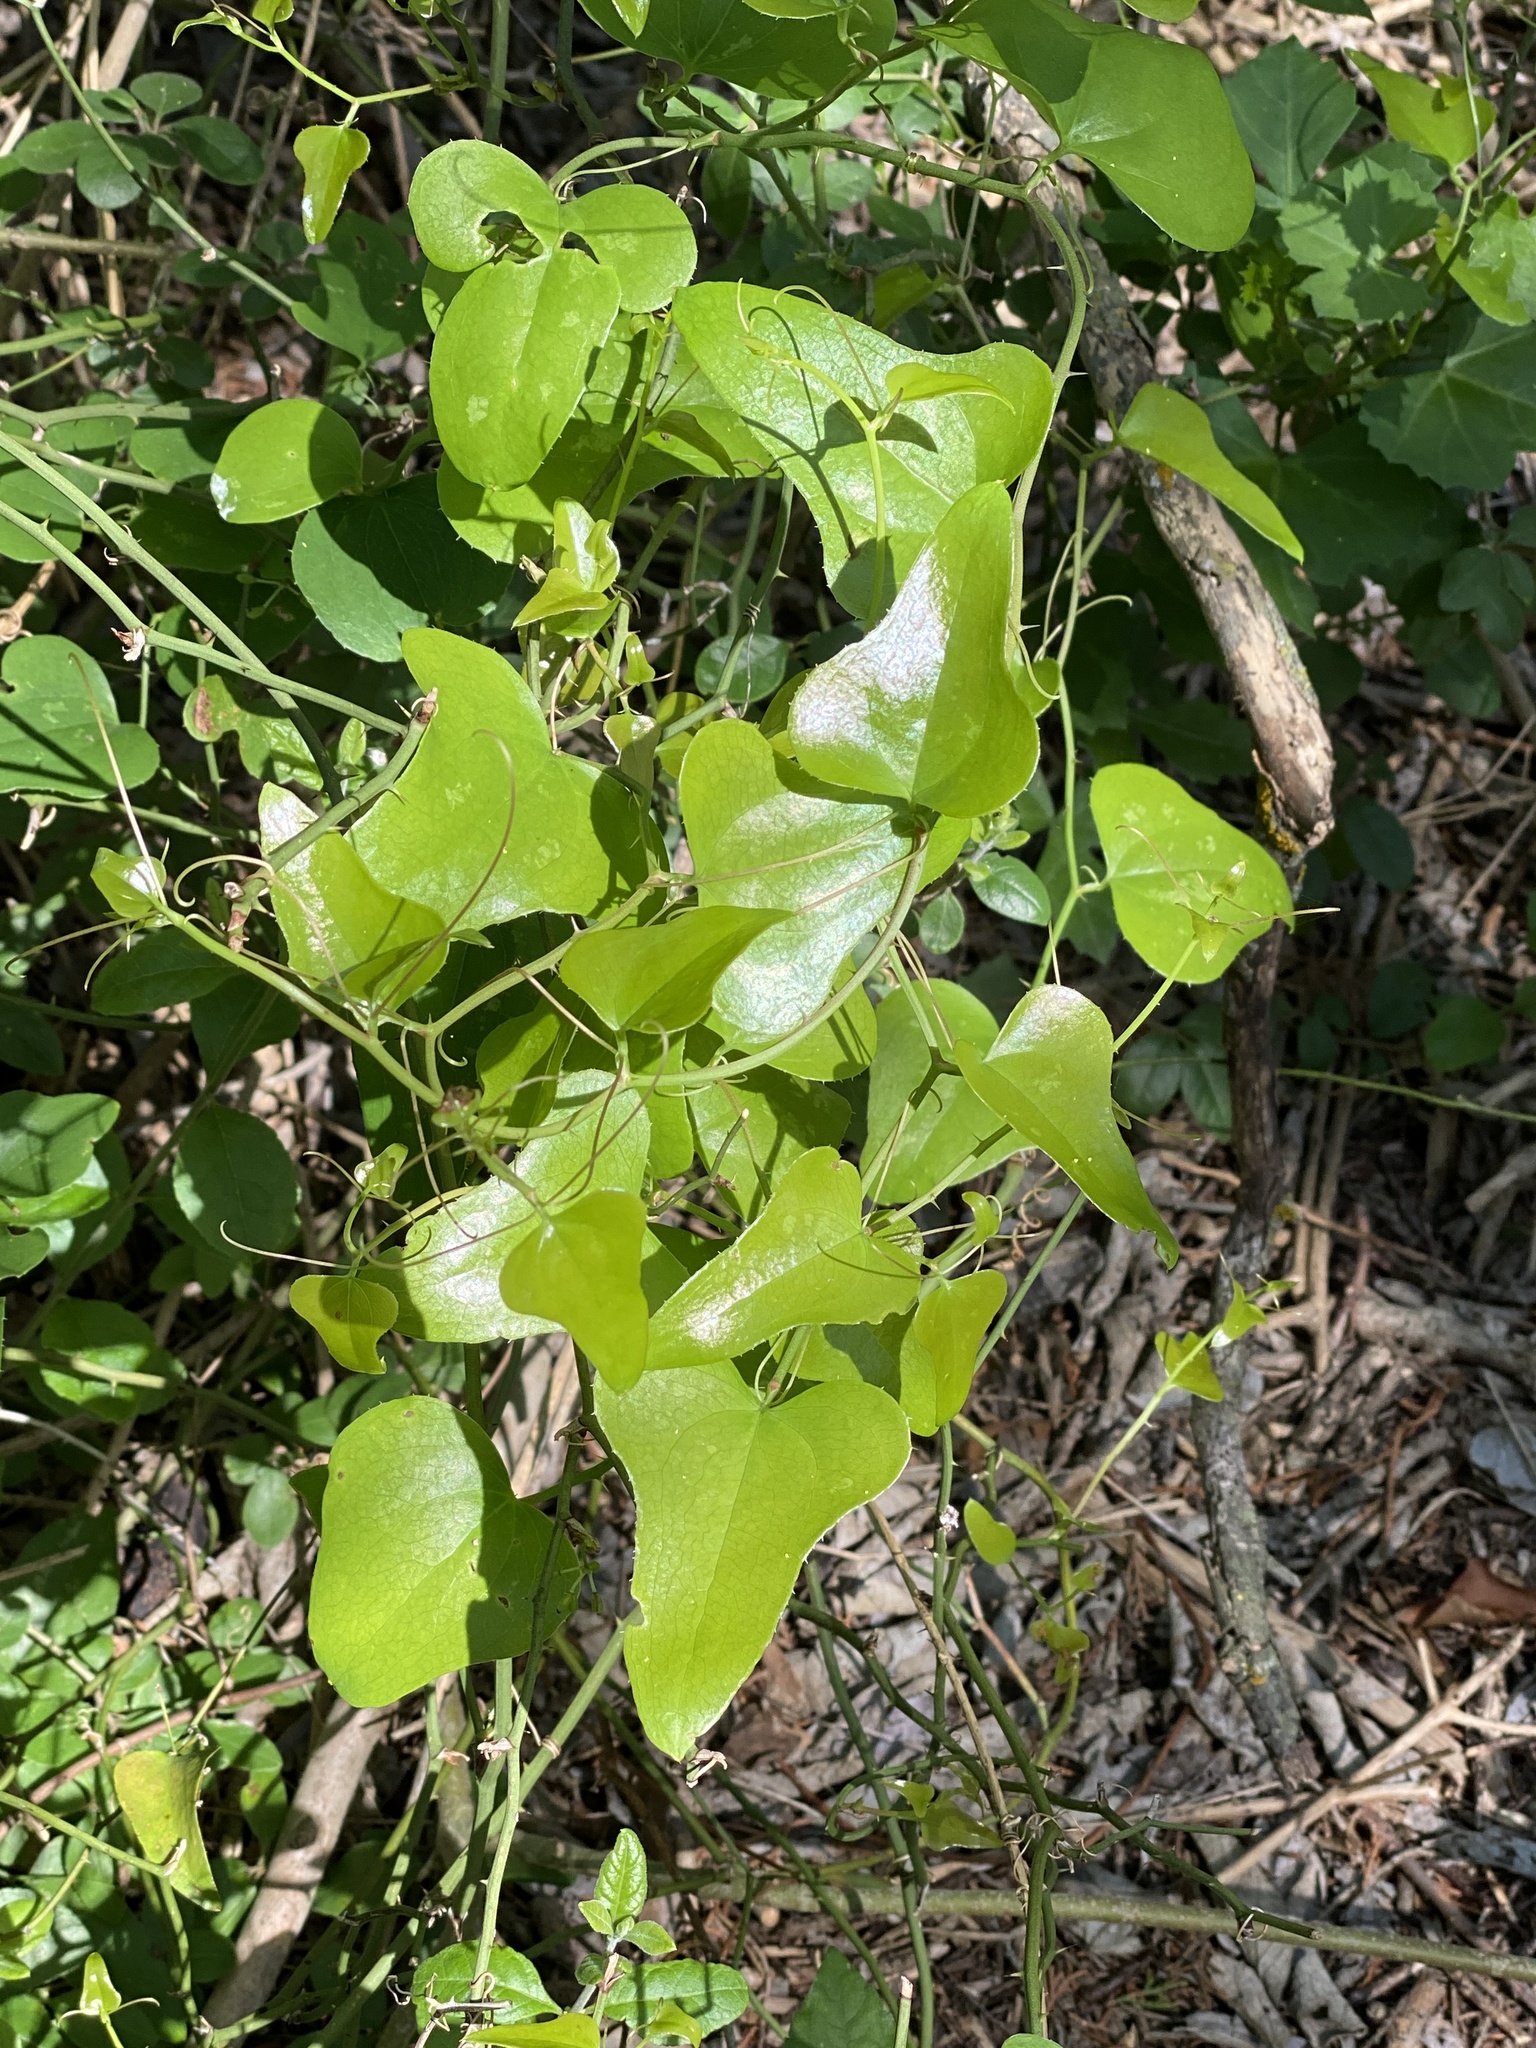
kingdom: Plantae
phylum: Tracheophyta
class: Liliopsida
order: Liliales
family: Smilacaceae
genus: Smilax
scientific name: Smilax bona-nox
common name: Catbrier
